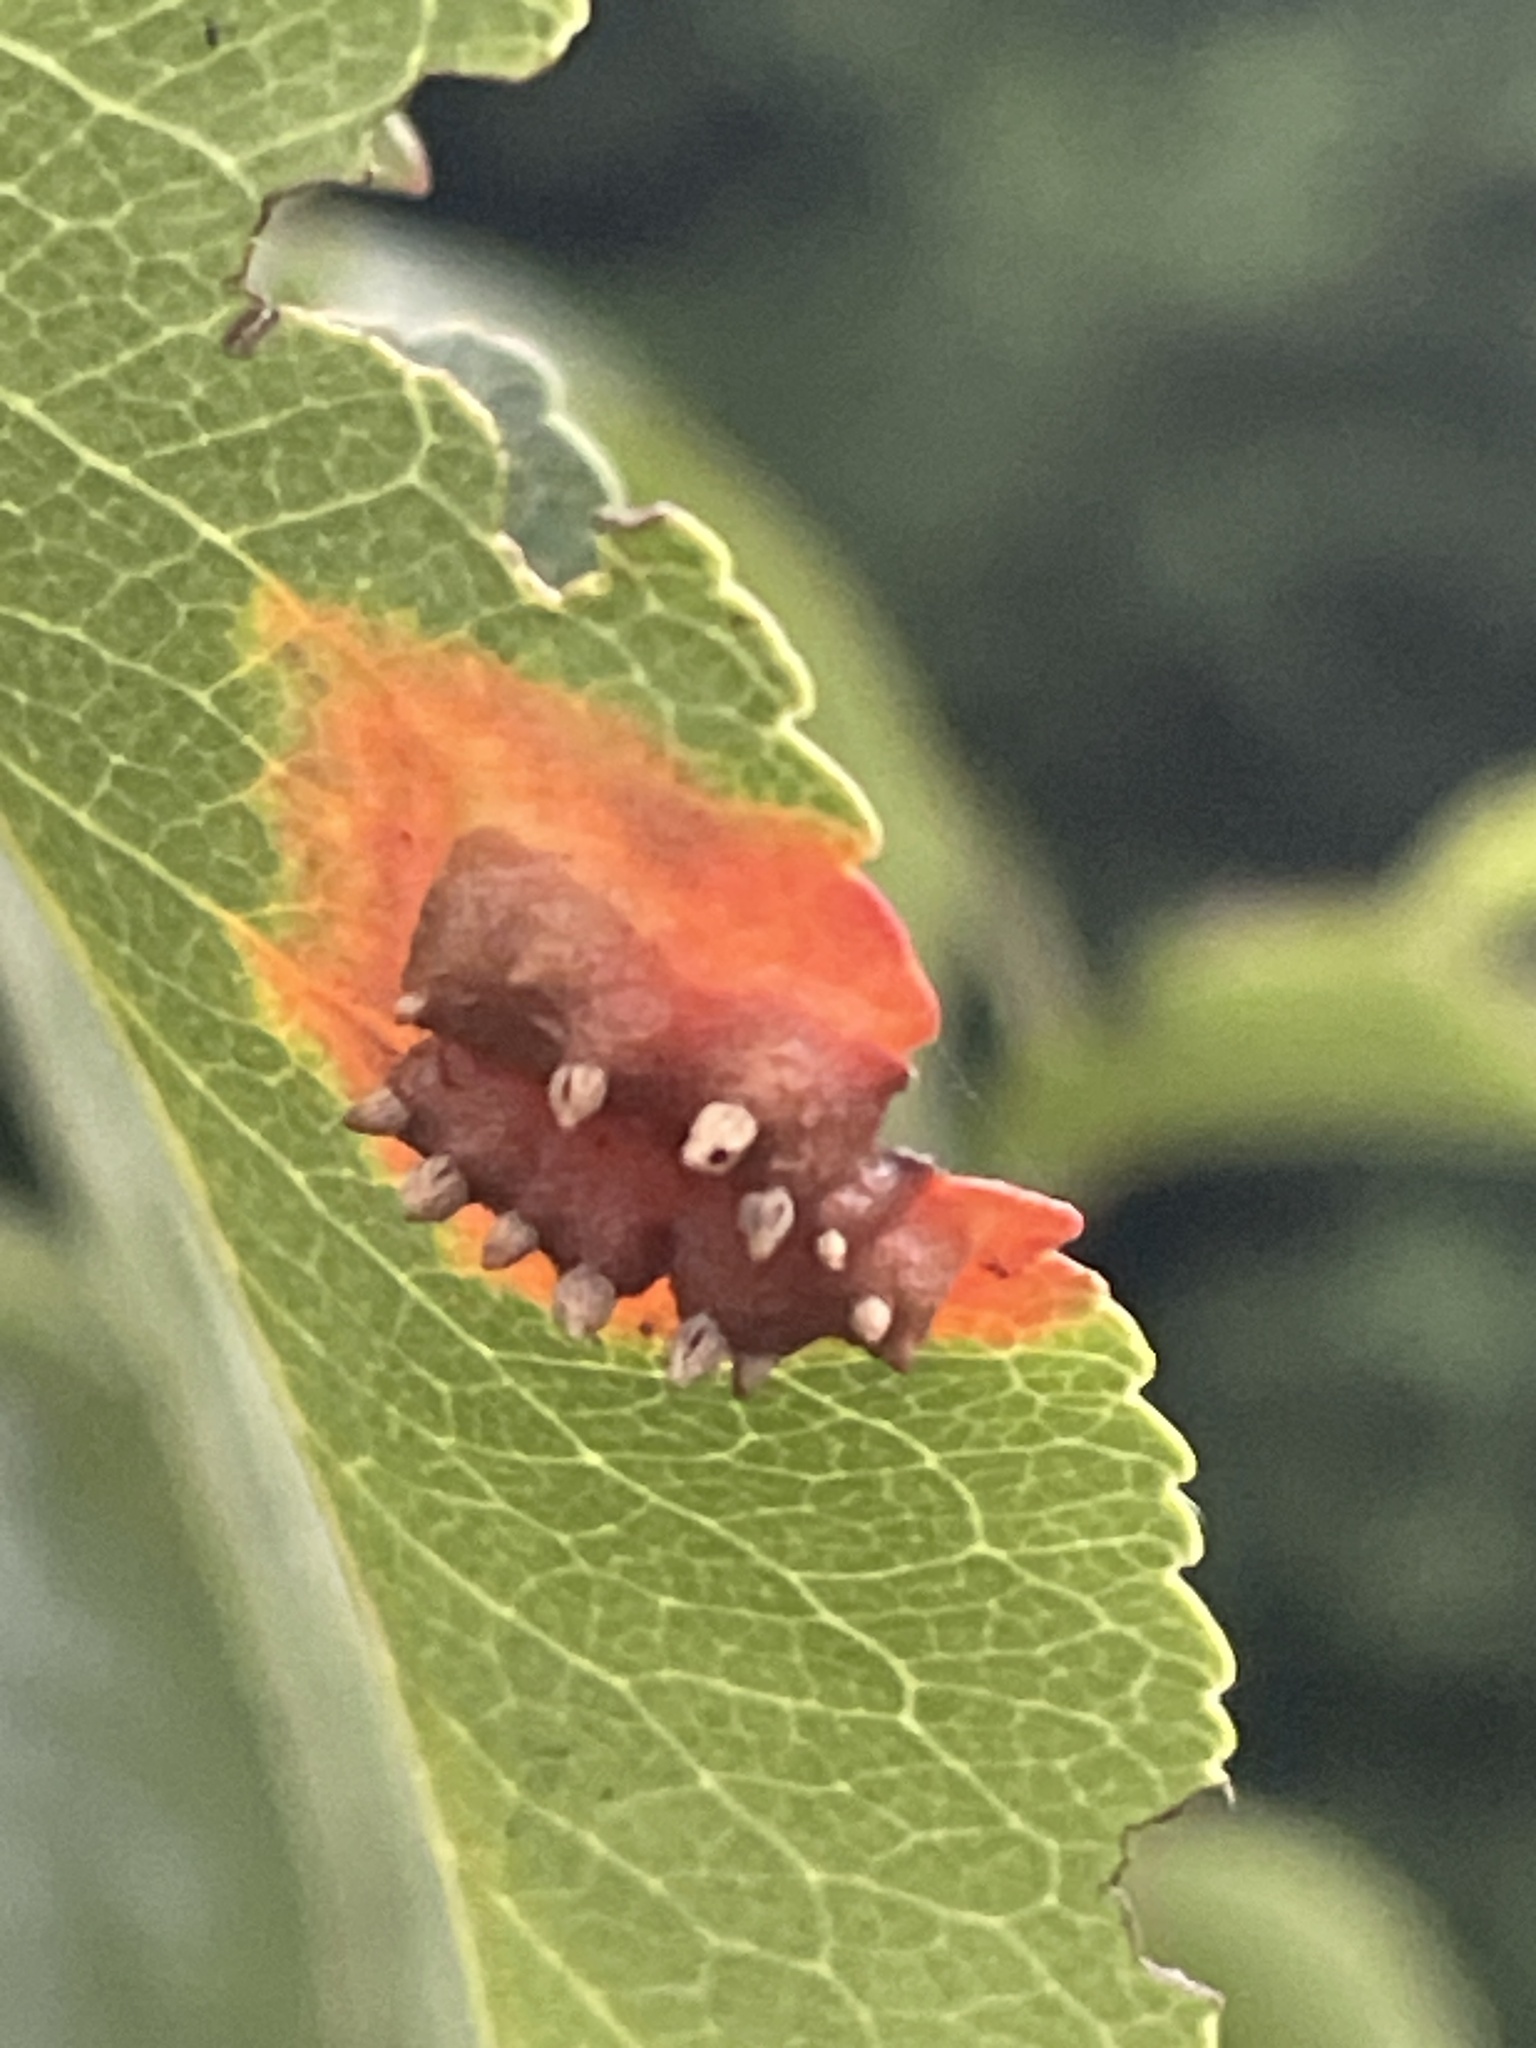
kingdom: Fungi
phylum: Basidiomycota
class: Pucciniomycetes
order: Pucciniales
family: Gymnosporangiaceae
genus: Gymnosporangium
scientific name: Gymnosporangium sabinae
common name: Pear trellis rust fungus
